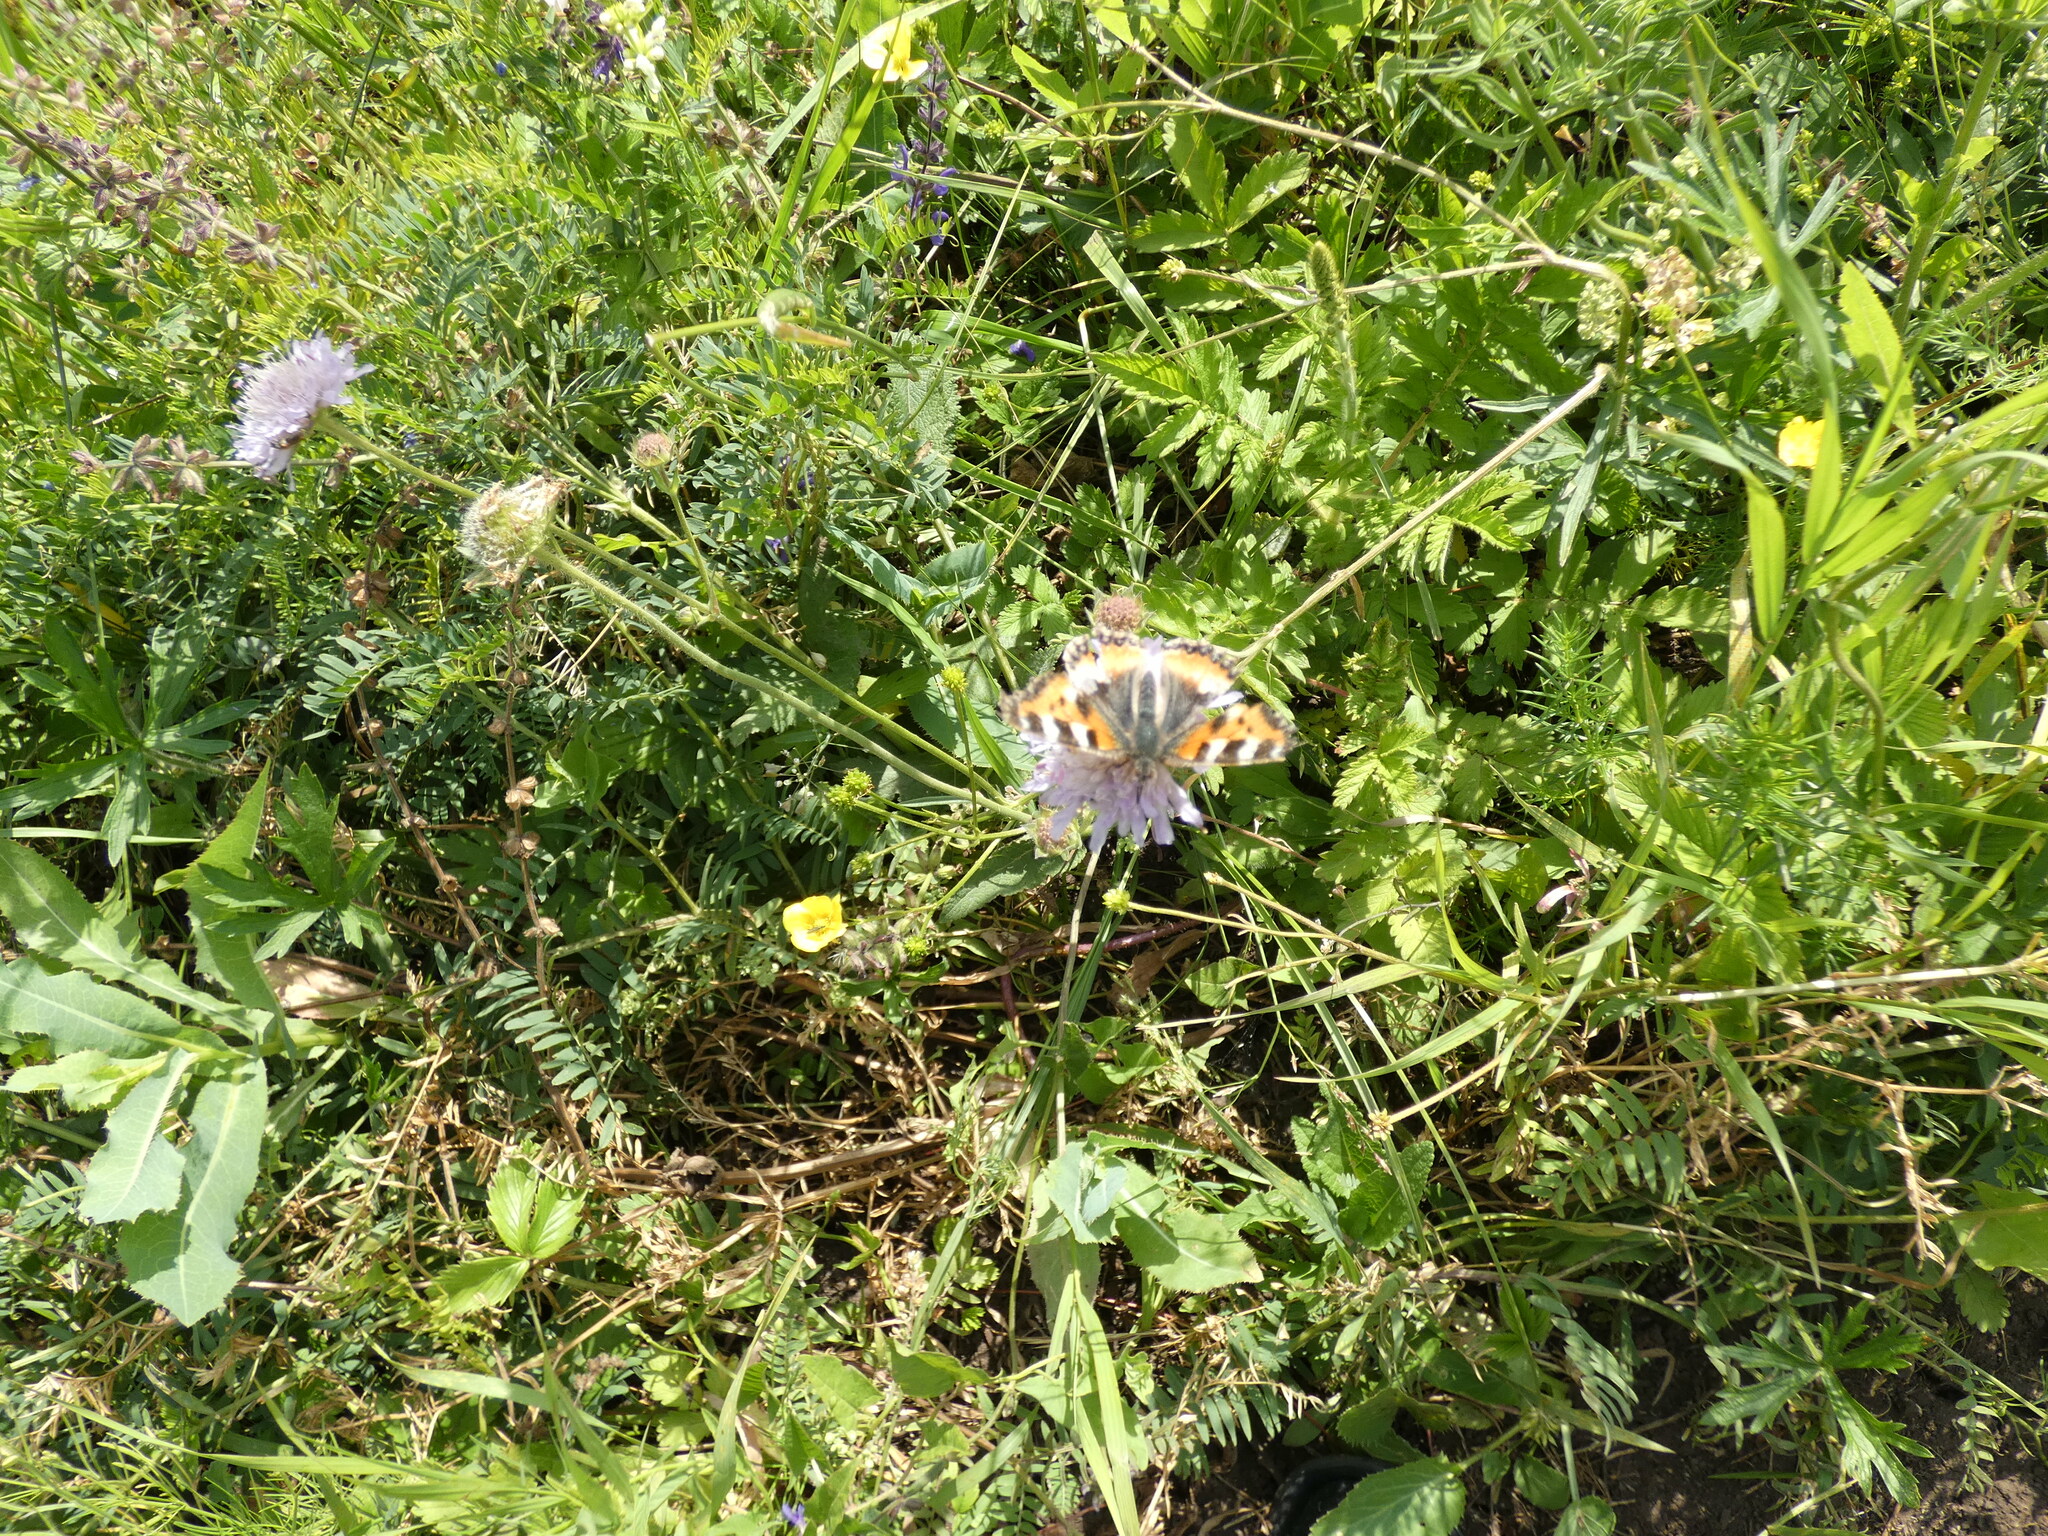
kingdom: Animalia
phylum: Arthropoda
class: Insecta
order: Lepidoptera
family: Nymphalidae
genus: Aglais
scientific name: Aglais urticae
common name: Small tortoiseshell
